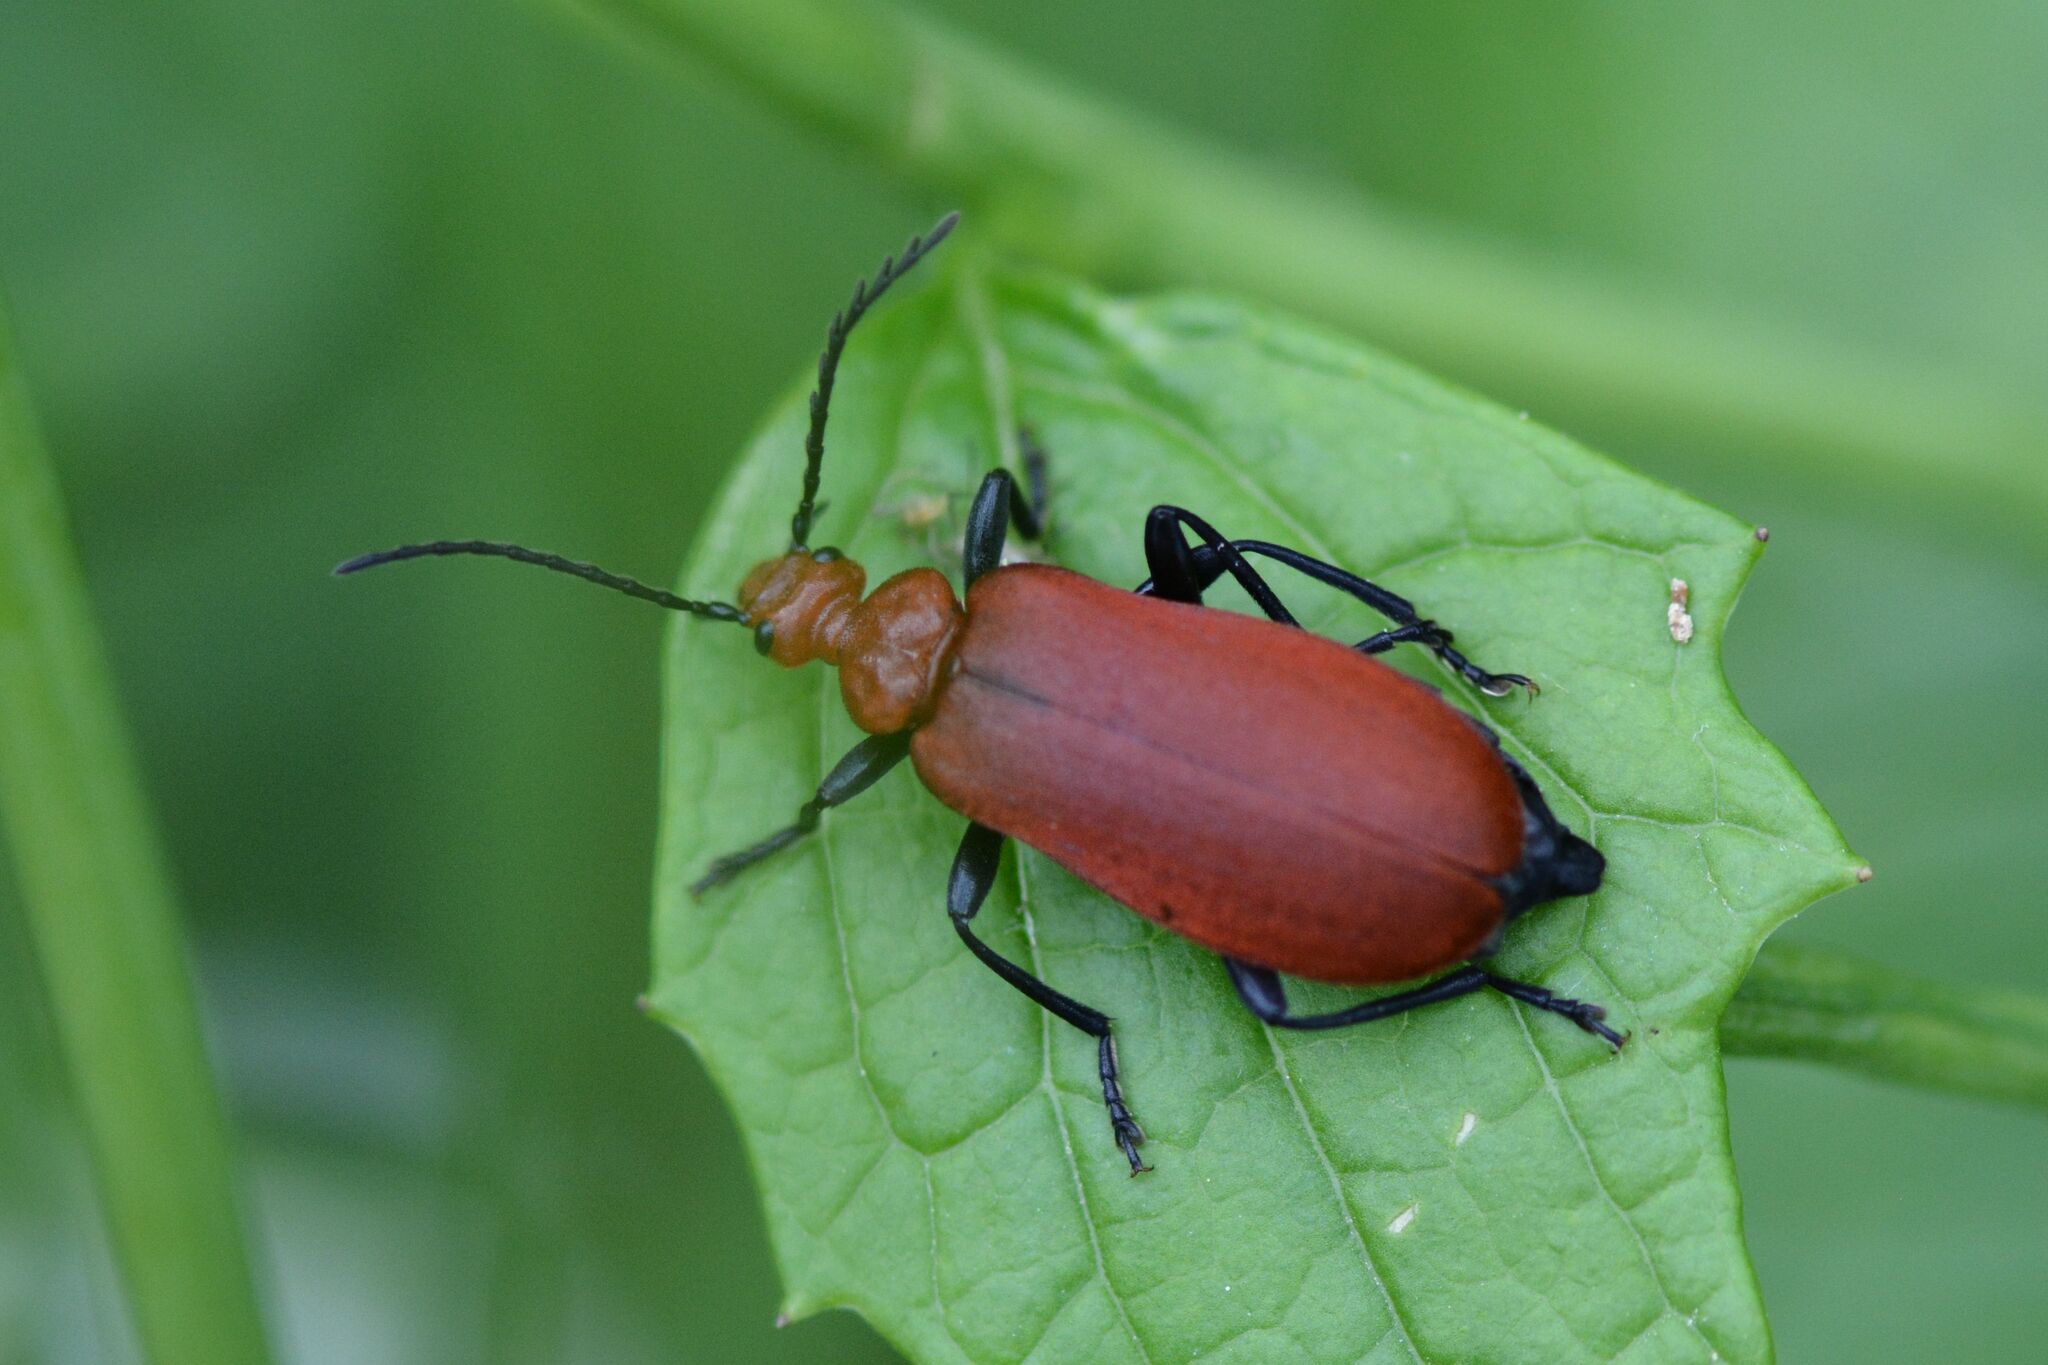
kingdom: Animalia
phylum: Arthropoda
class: Insecta
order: Coleoptera
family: Pyrochroidae
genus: Pyrochroa
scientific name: Pyrochroa serraticornis
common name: Red-headed cardinal beetle
